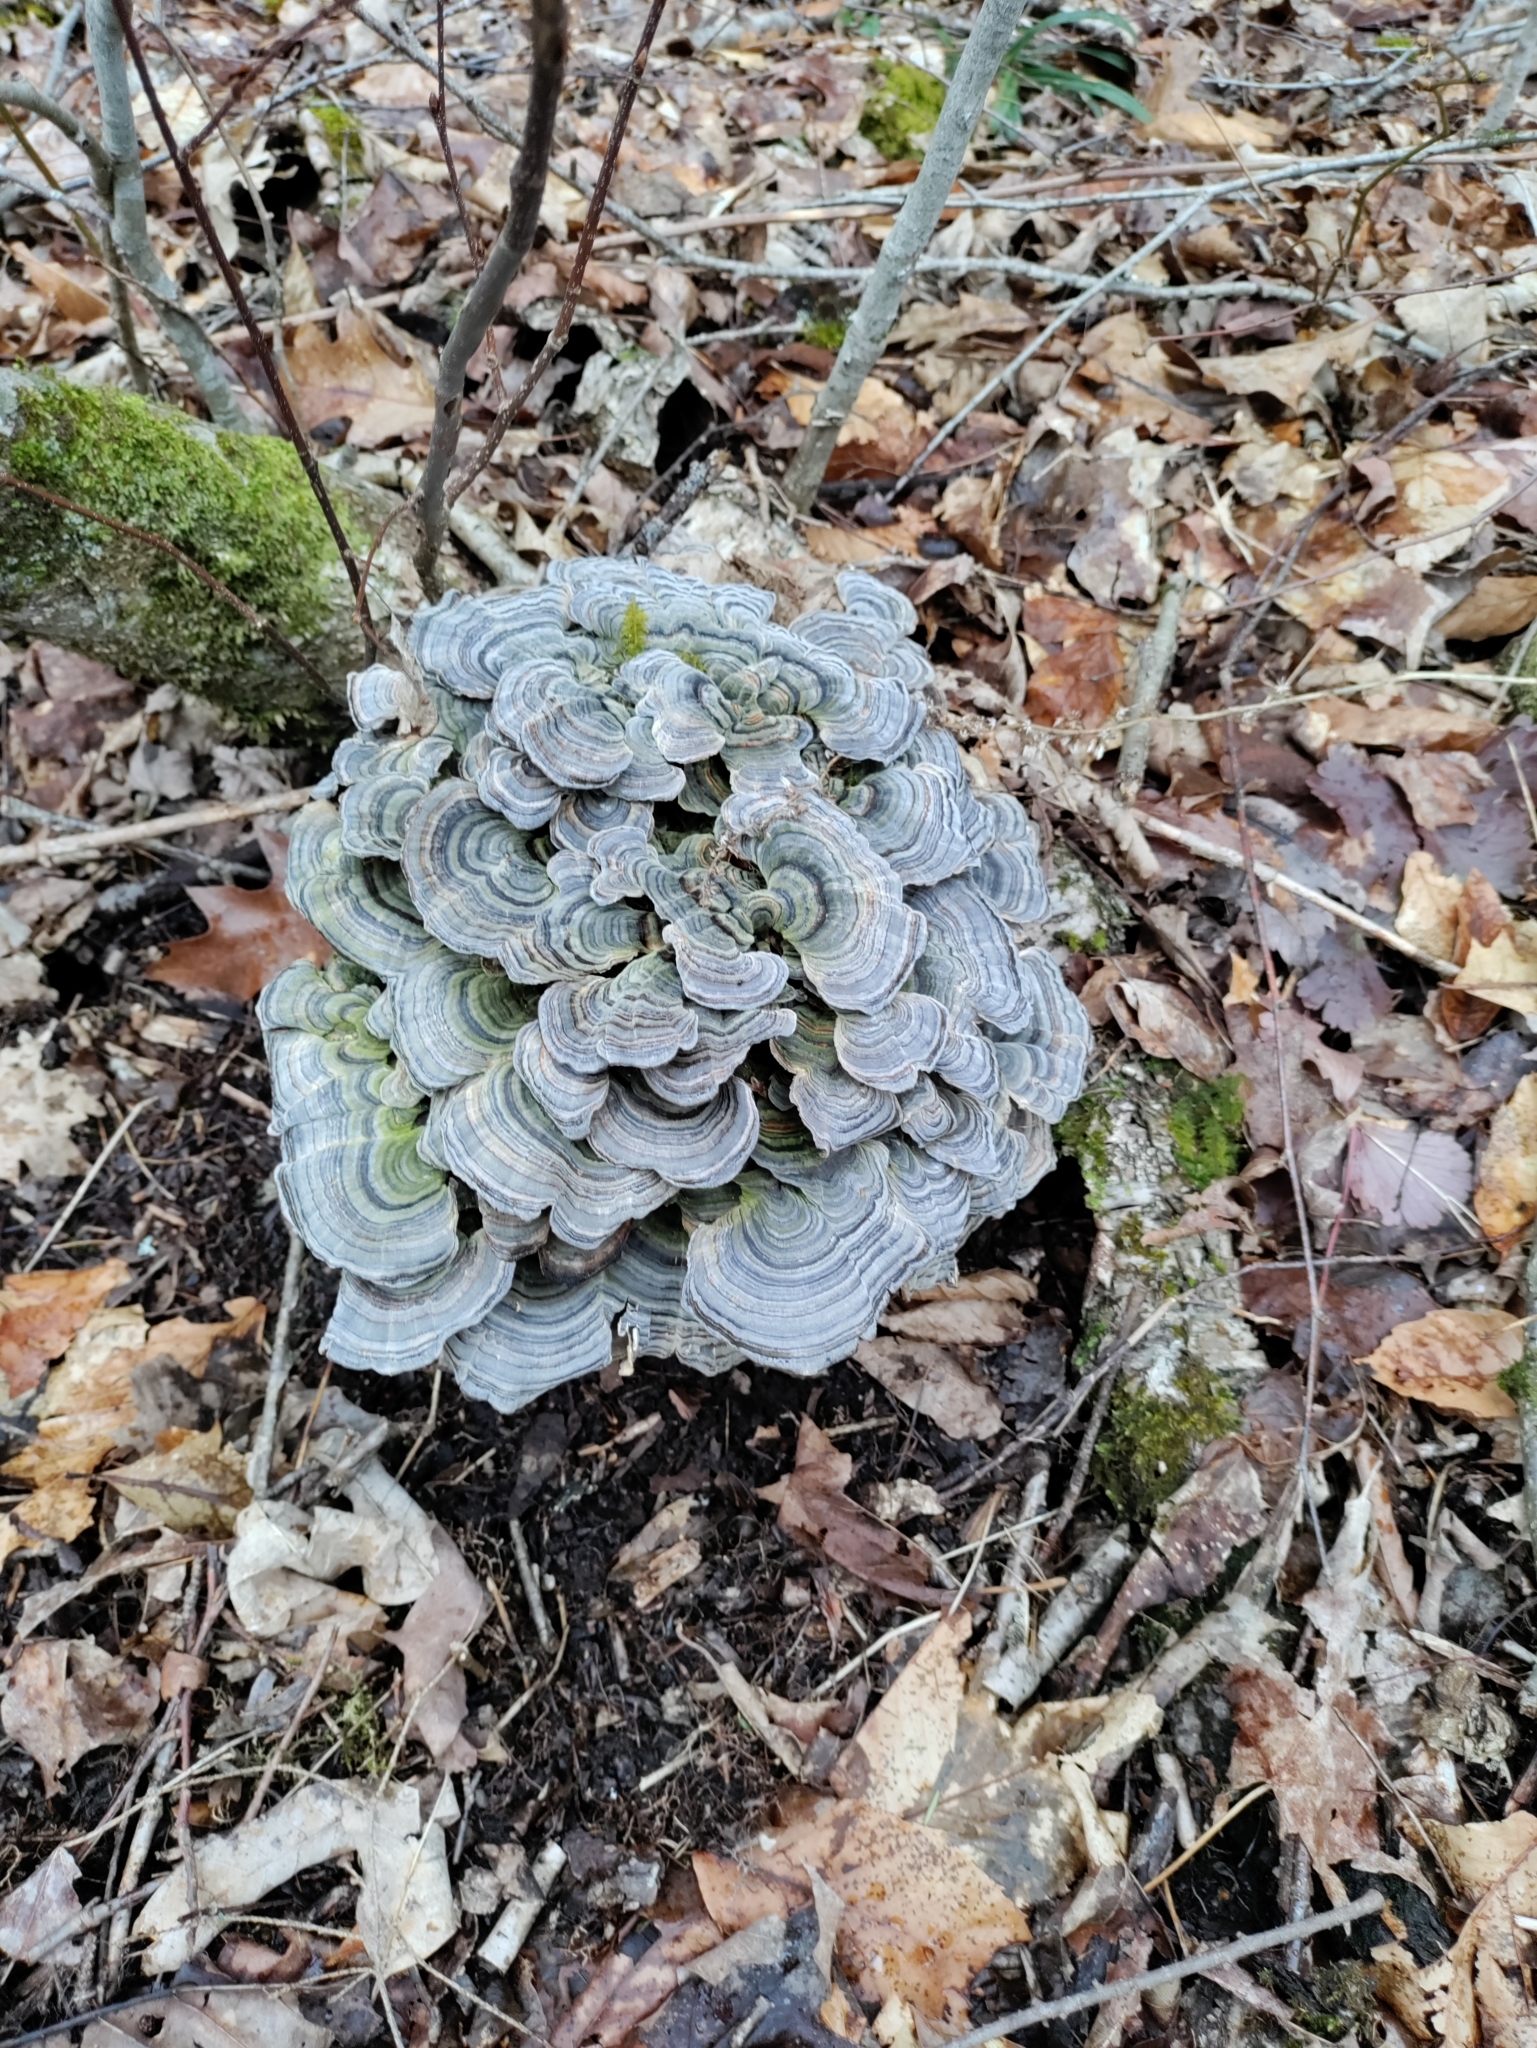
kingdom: Fungi
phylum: Basidiomycota
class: Agaricomycetes
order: Polyporales
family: Polyporaceae
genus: Trametes
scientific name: Trametes versicolor
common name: Turkeytail
